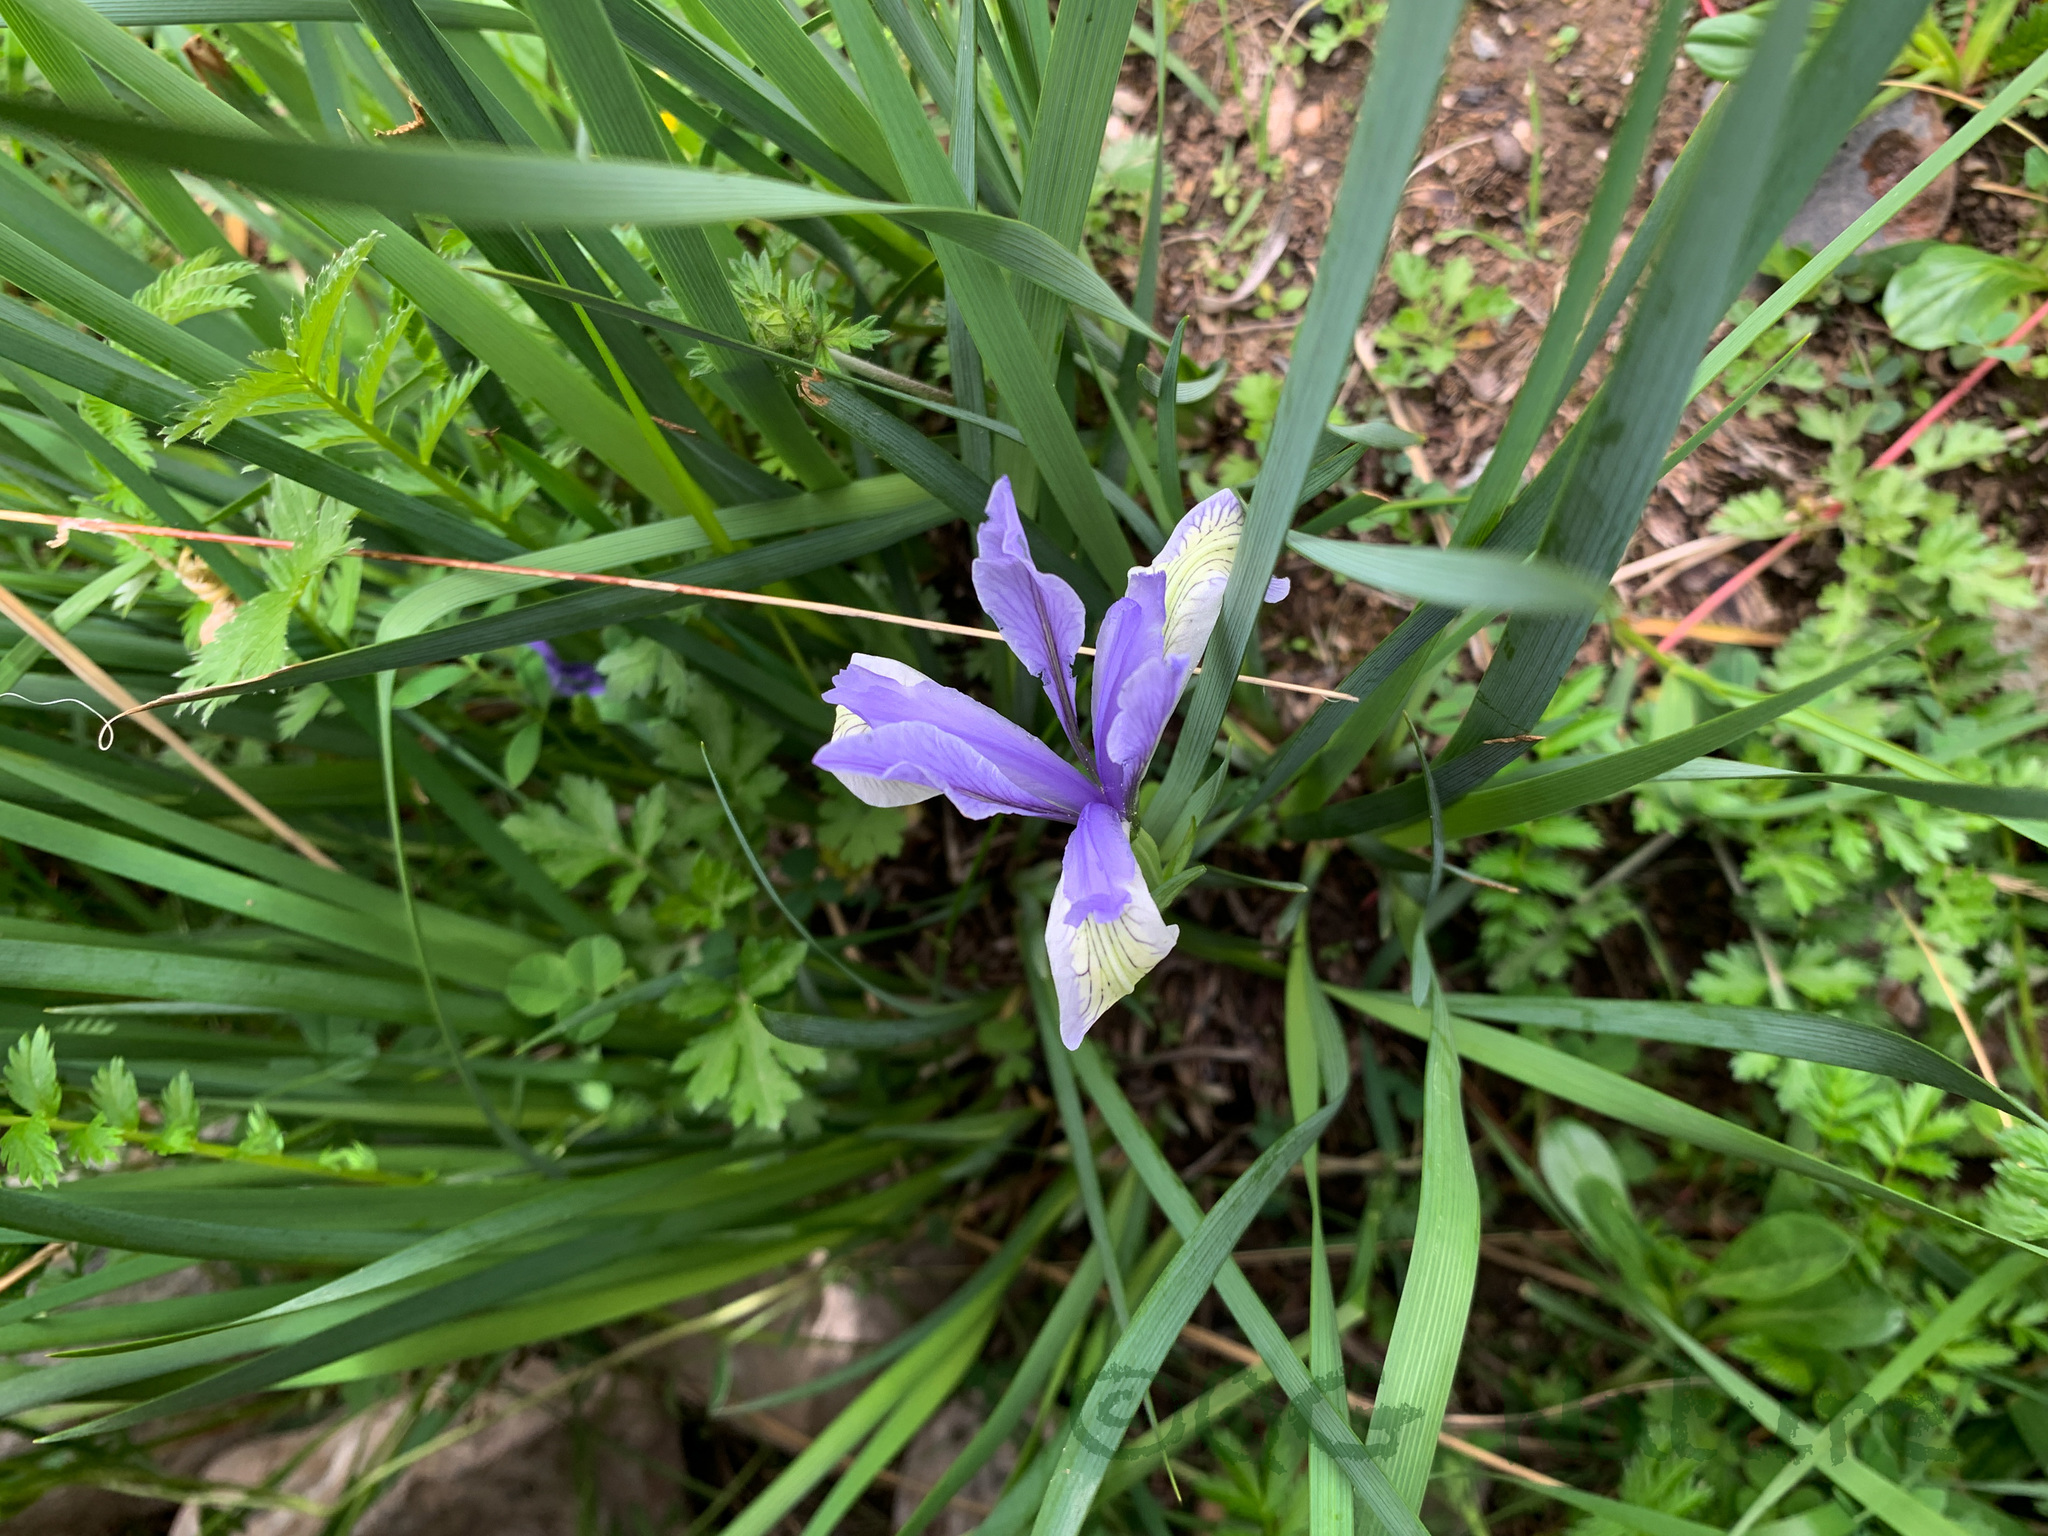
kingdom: Plantae
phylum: Tracheophyta
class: Liliopsida
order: Asparagales
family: Iridaceae
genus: Iris
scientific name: Iris lactea
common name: White-flower chinese iris
